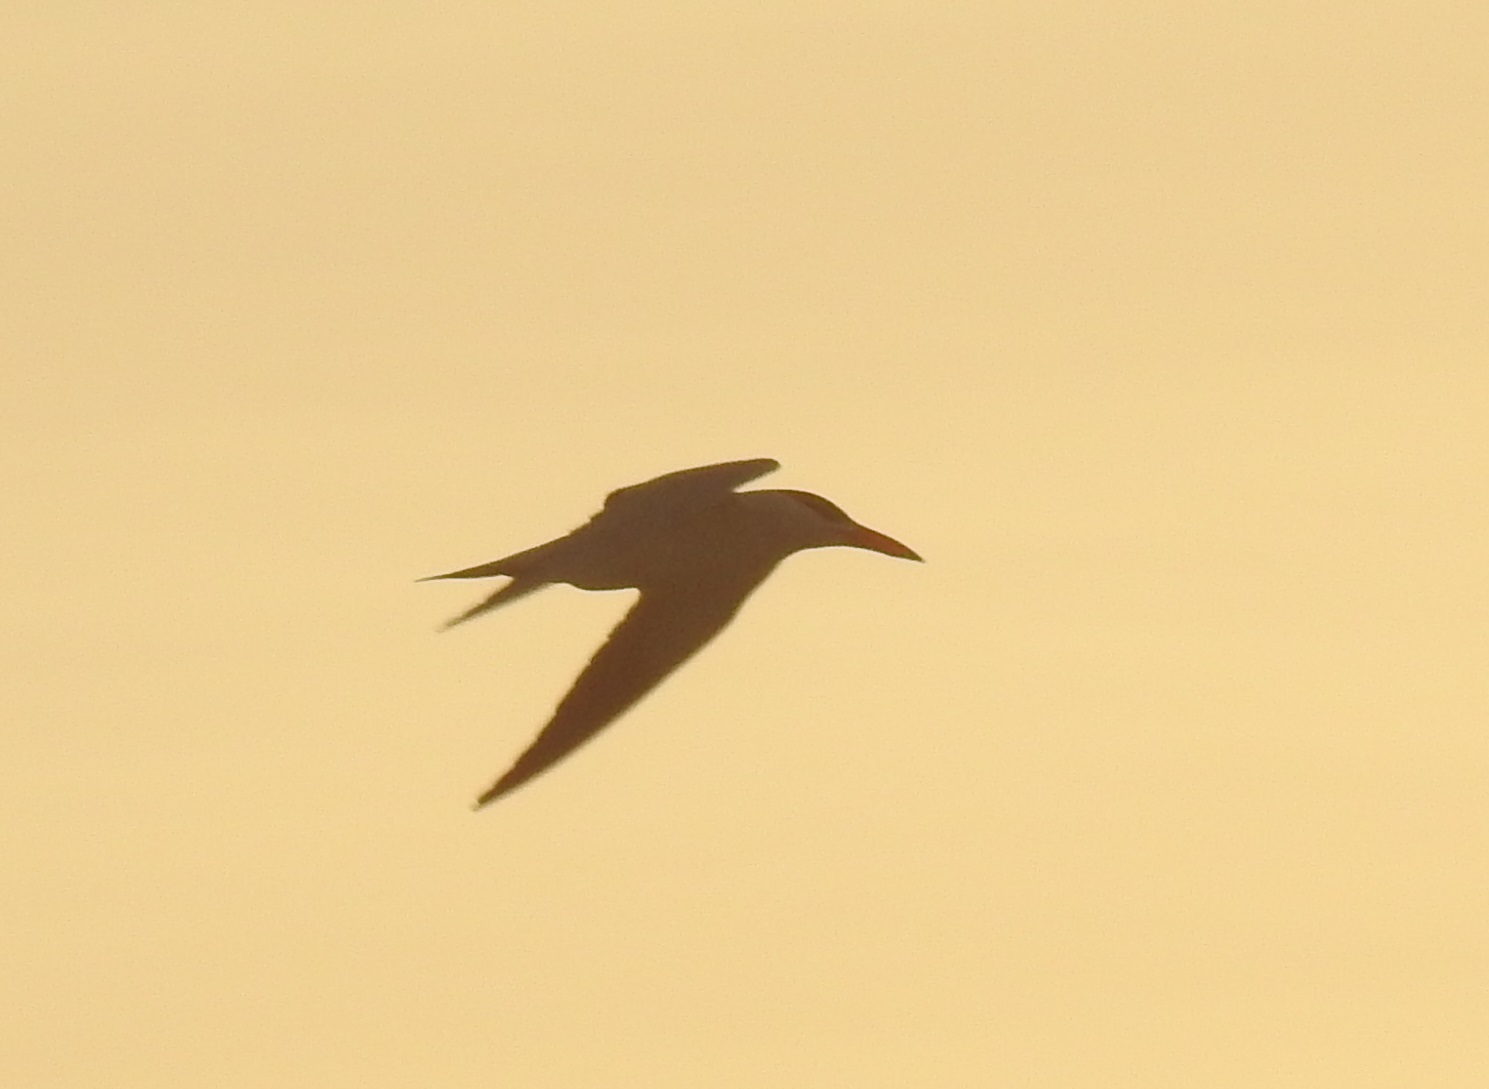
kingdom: Animalia
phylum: Chordata
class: Aves
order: Charadriiformes
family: Laridae
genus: Hydroprogne
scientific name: Hydroprogne caspia
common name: Caspian tern
